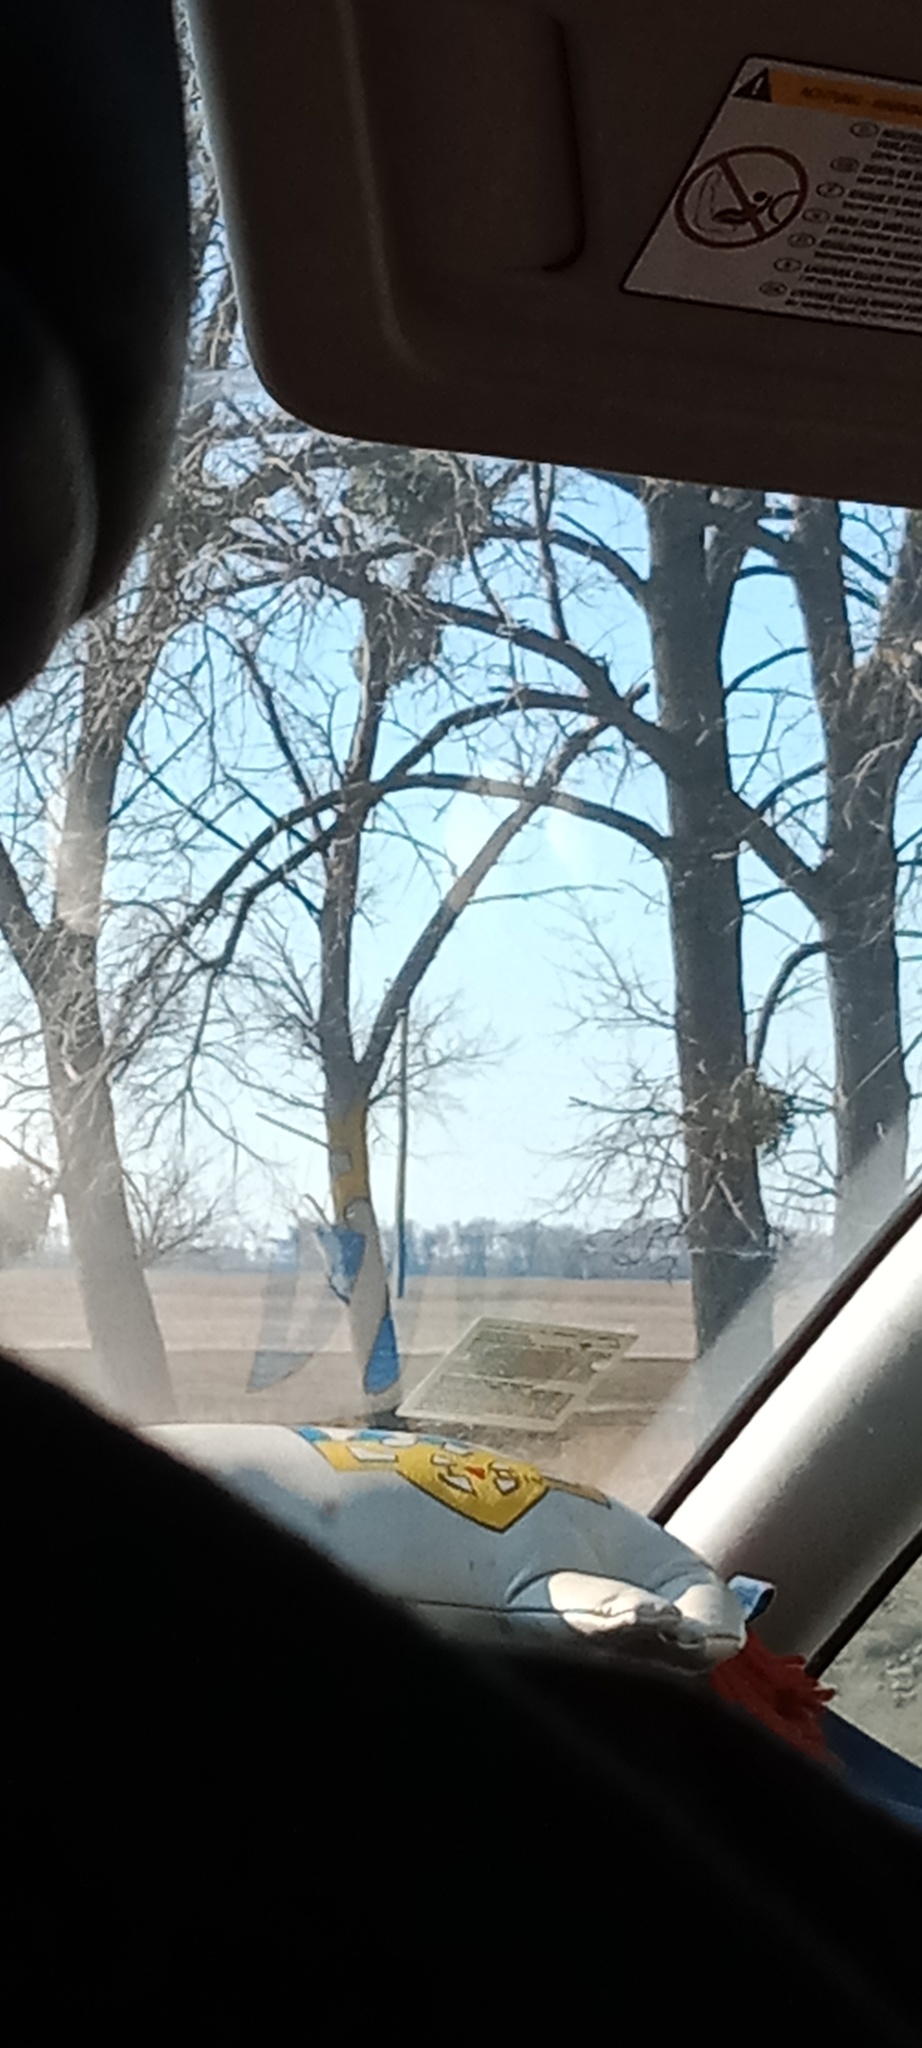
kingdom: Plantae
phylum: Tracheophyta
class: Magnoliopsida
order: Santalales
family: Viscaceae
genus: Viscum
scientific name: Viscum album
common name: Mistletoe
